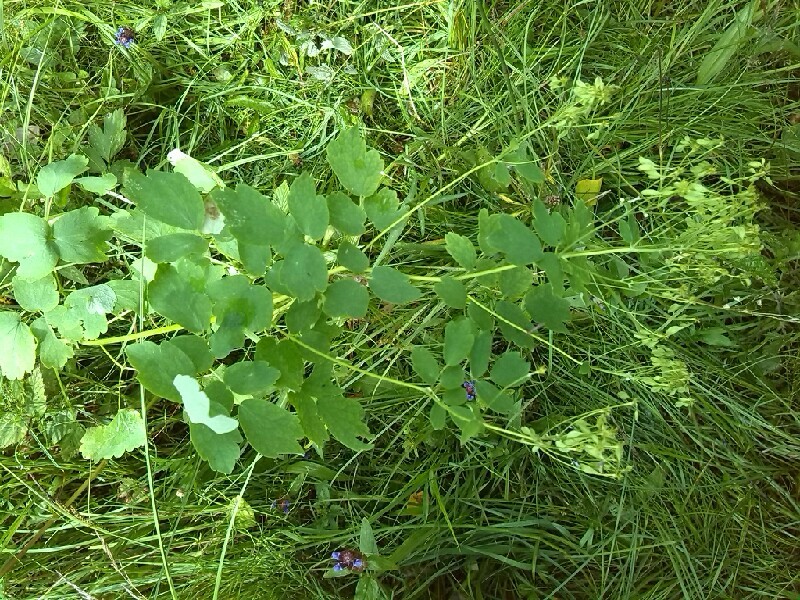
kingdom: Plantae
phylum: Tracheophyta
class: Magnoliopsida
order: Ranunculales
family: Ranunculaceae
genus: Thalictrum
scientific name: Thalictrum aquilegiifolium
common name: French meadow-rue
